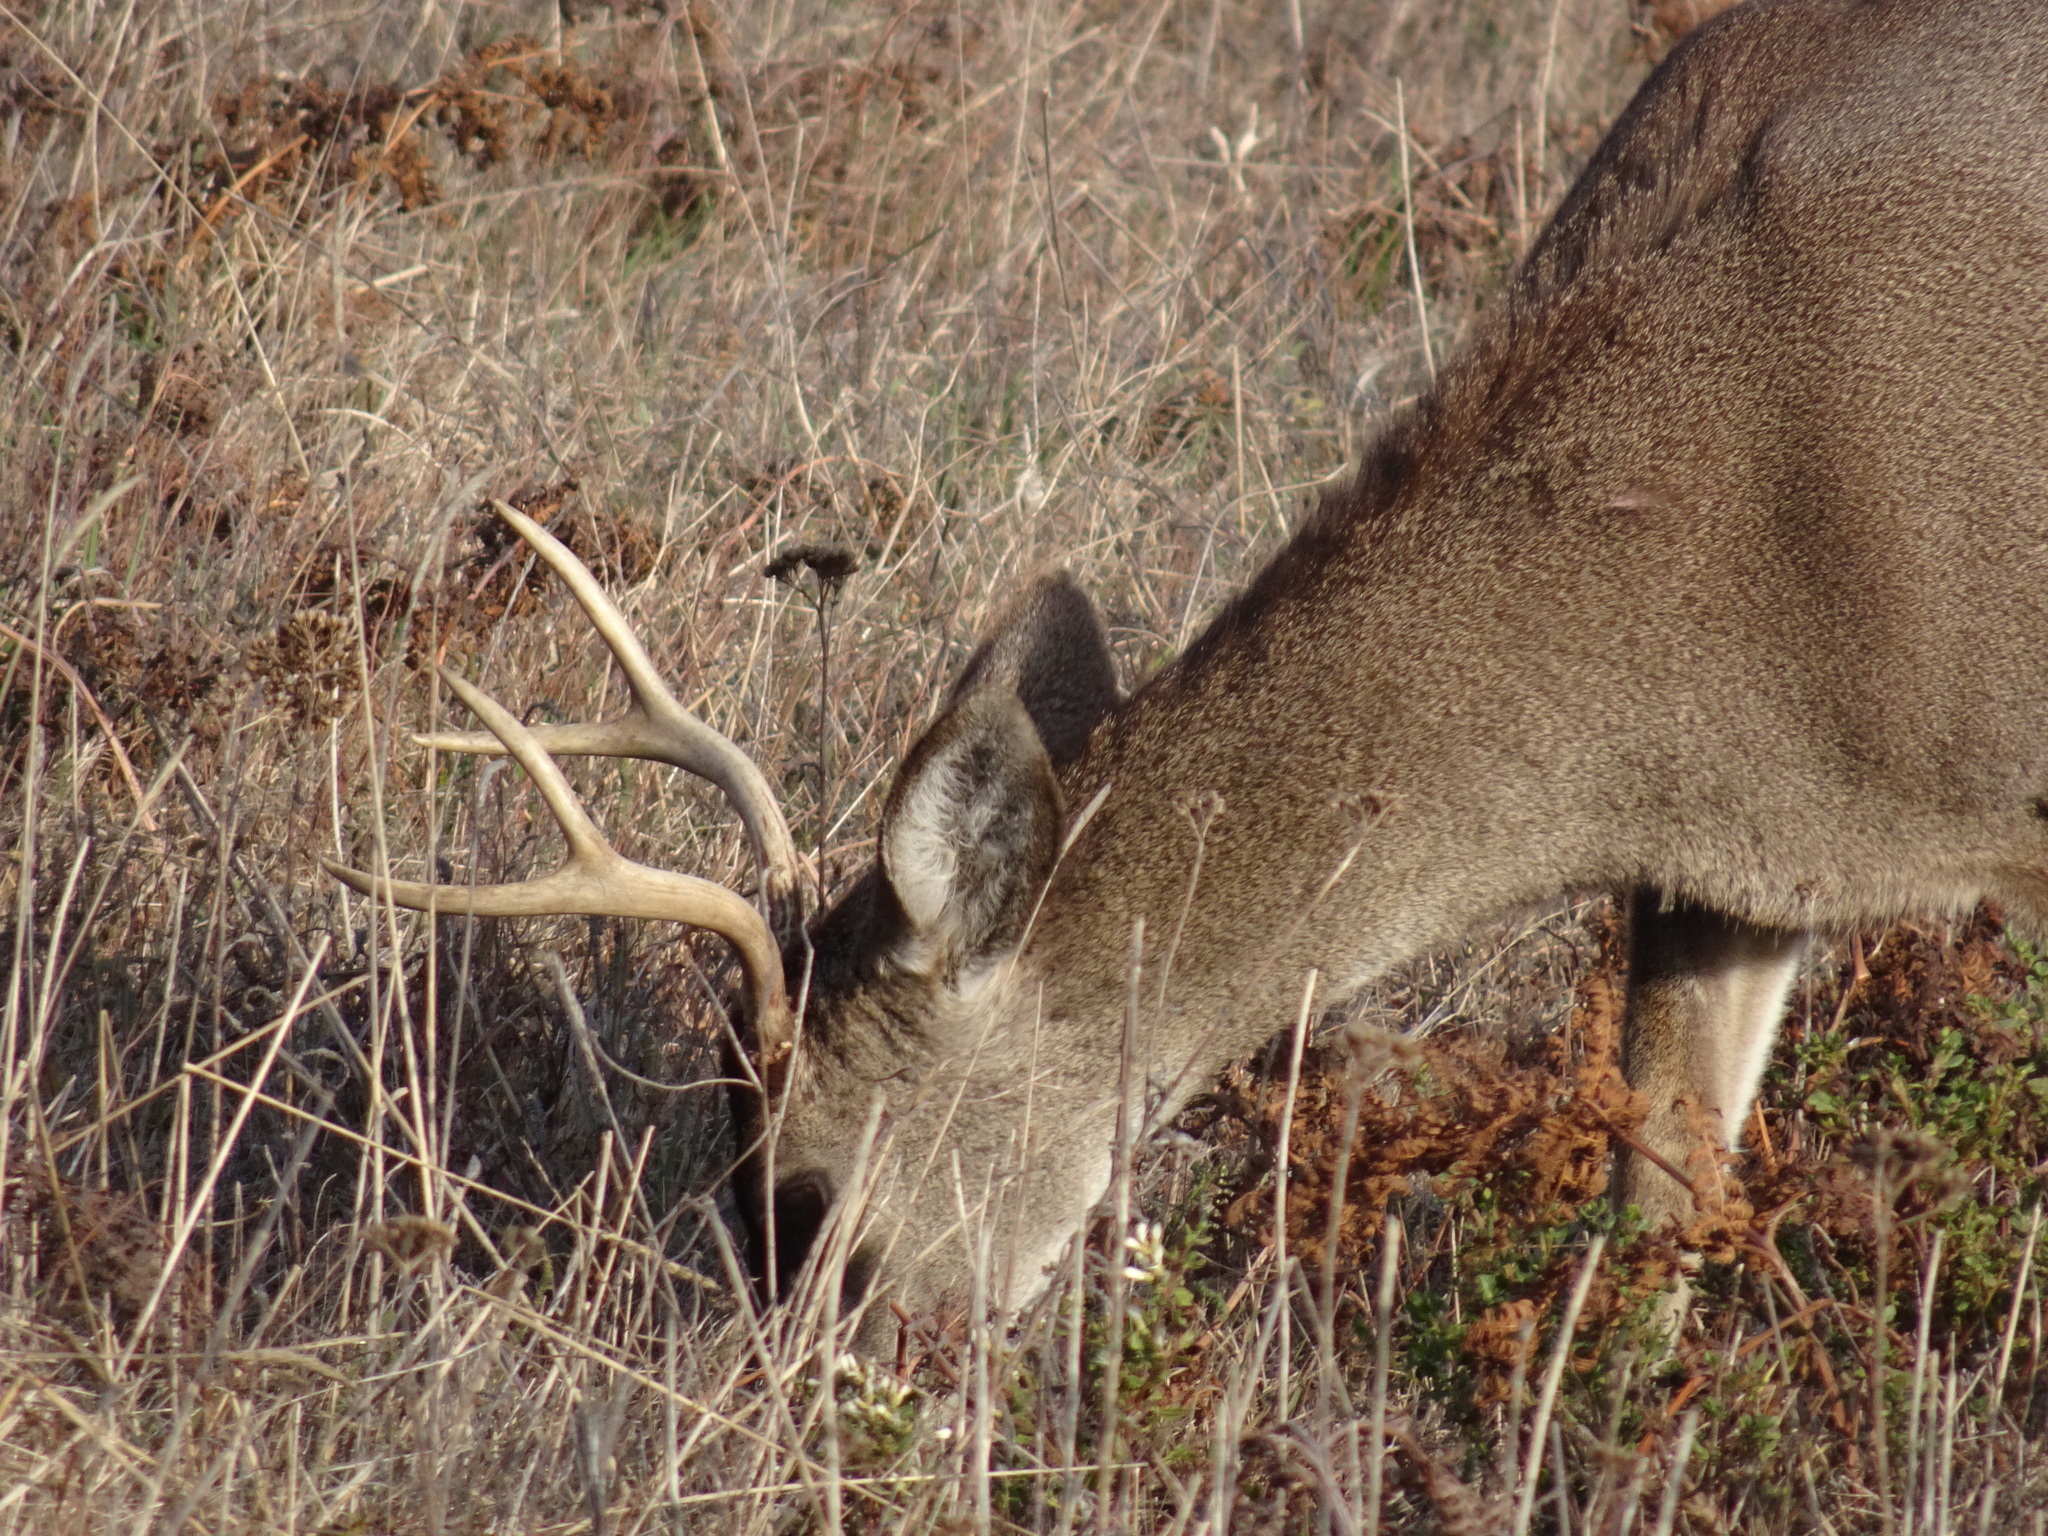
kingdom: Animalia
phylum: Chordata
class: Mammalia
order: Artiodactyla
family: Cervidae
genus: Odocoileus
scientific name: Odocoileus hemionus
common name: Mule deer
